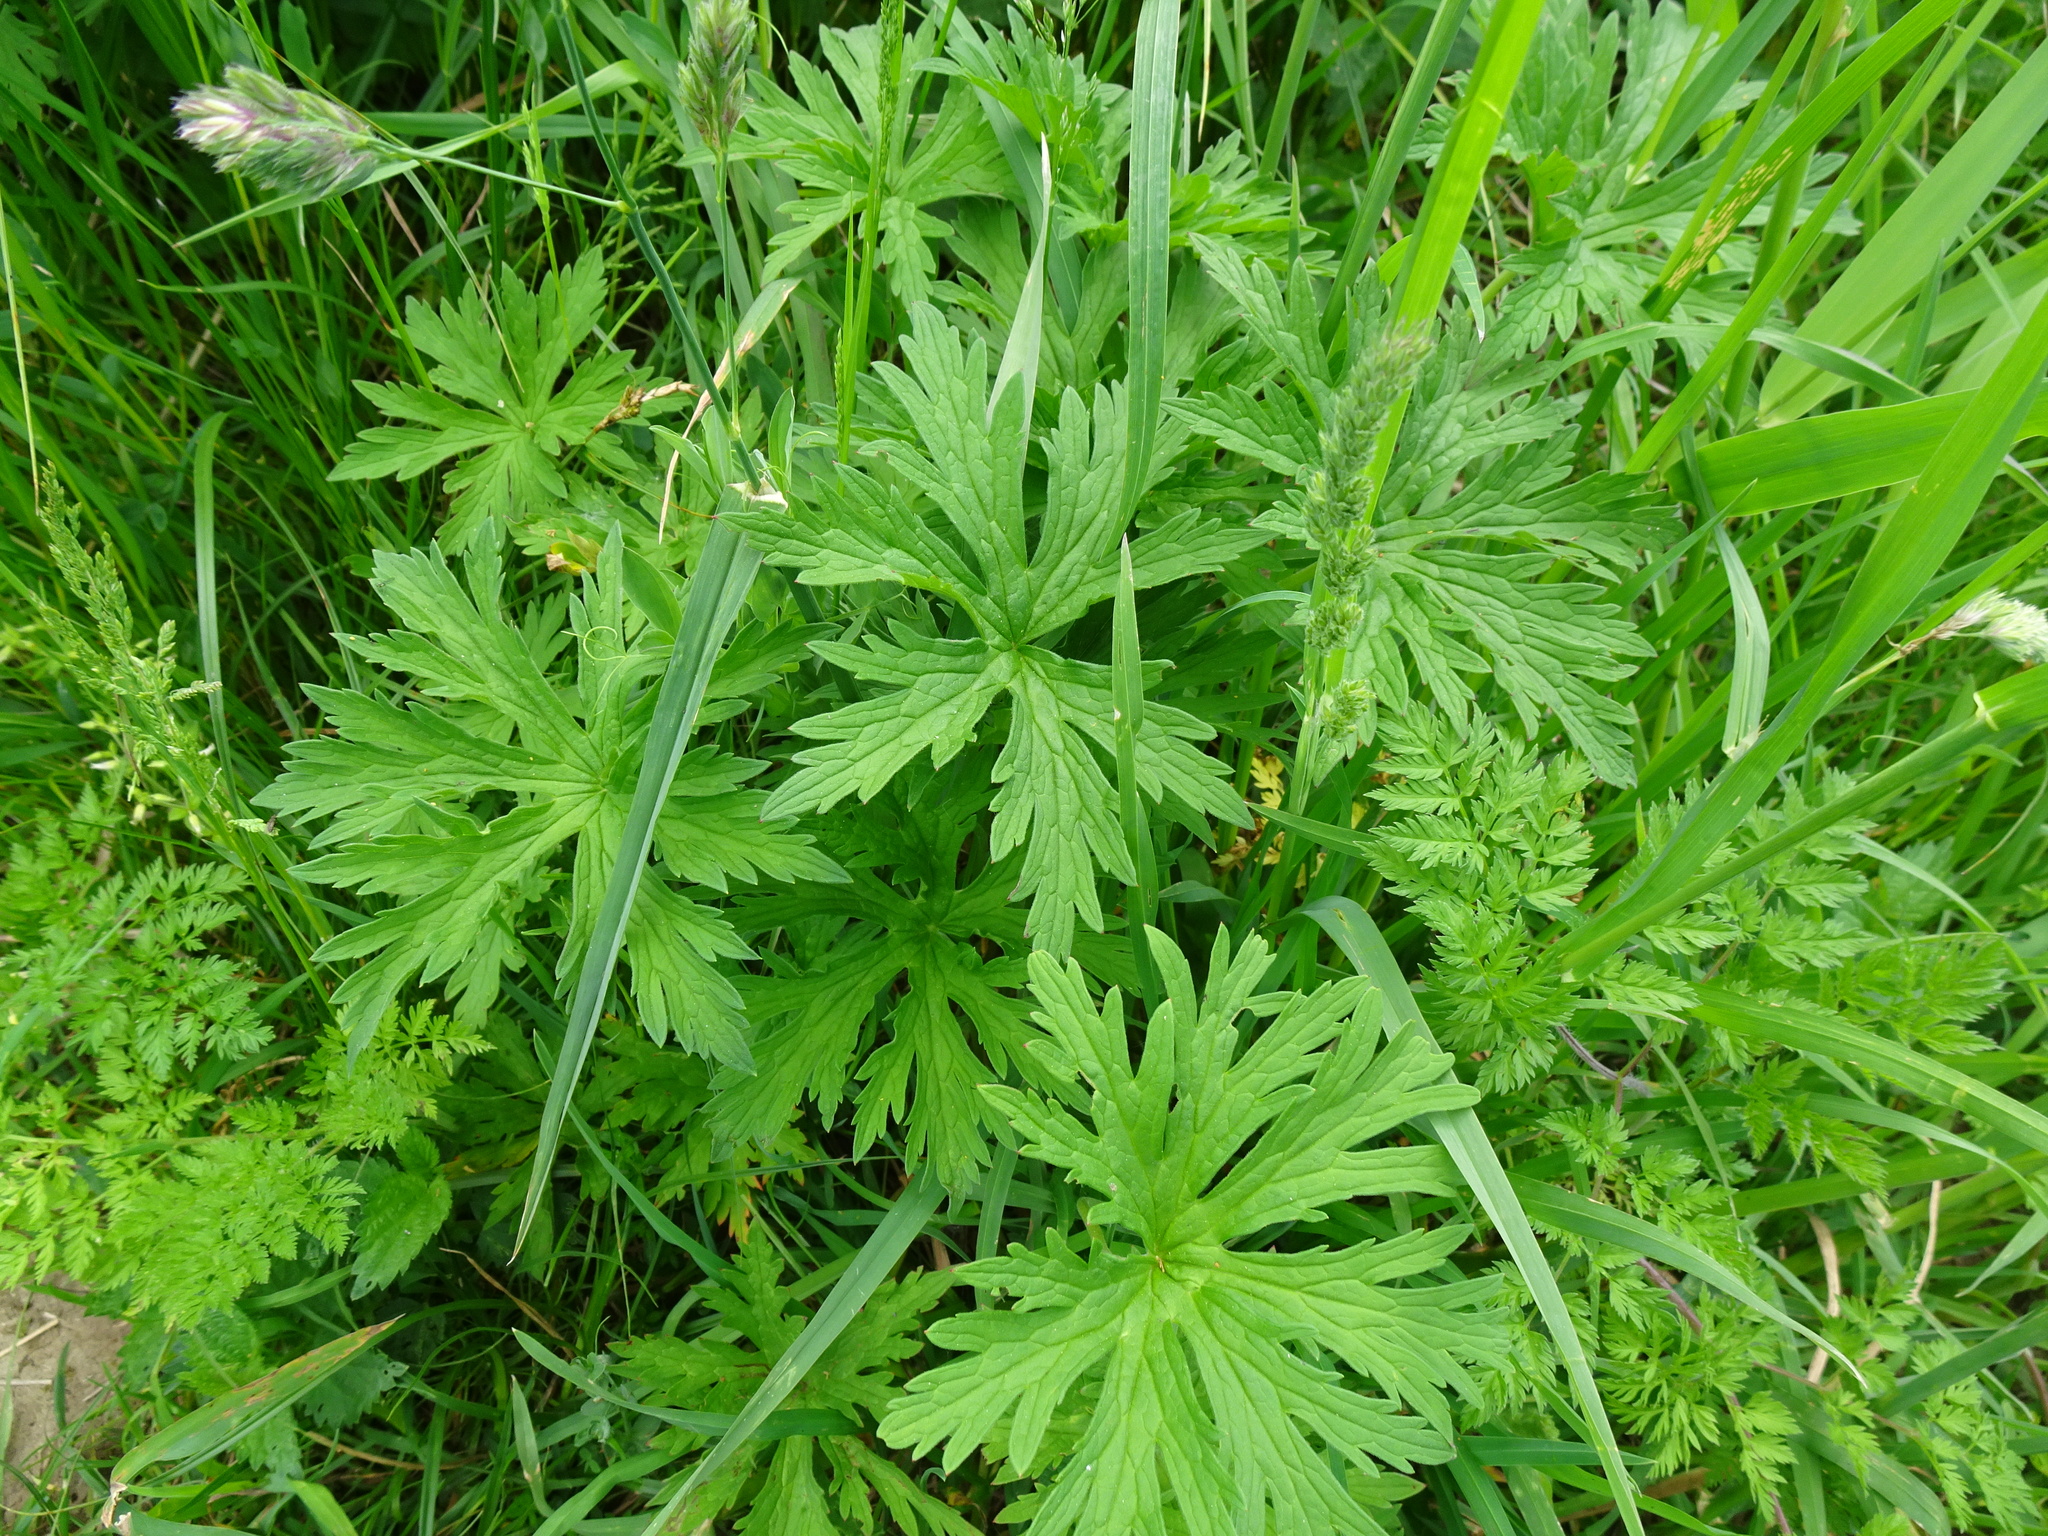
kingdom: Plantae
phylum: Tracheophyta
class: Magnoliopsida
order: Geraniales
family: Geraniaceae
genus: Geranium
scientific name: Geranium pratense
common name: Meadow crane's-bill
